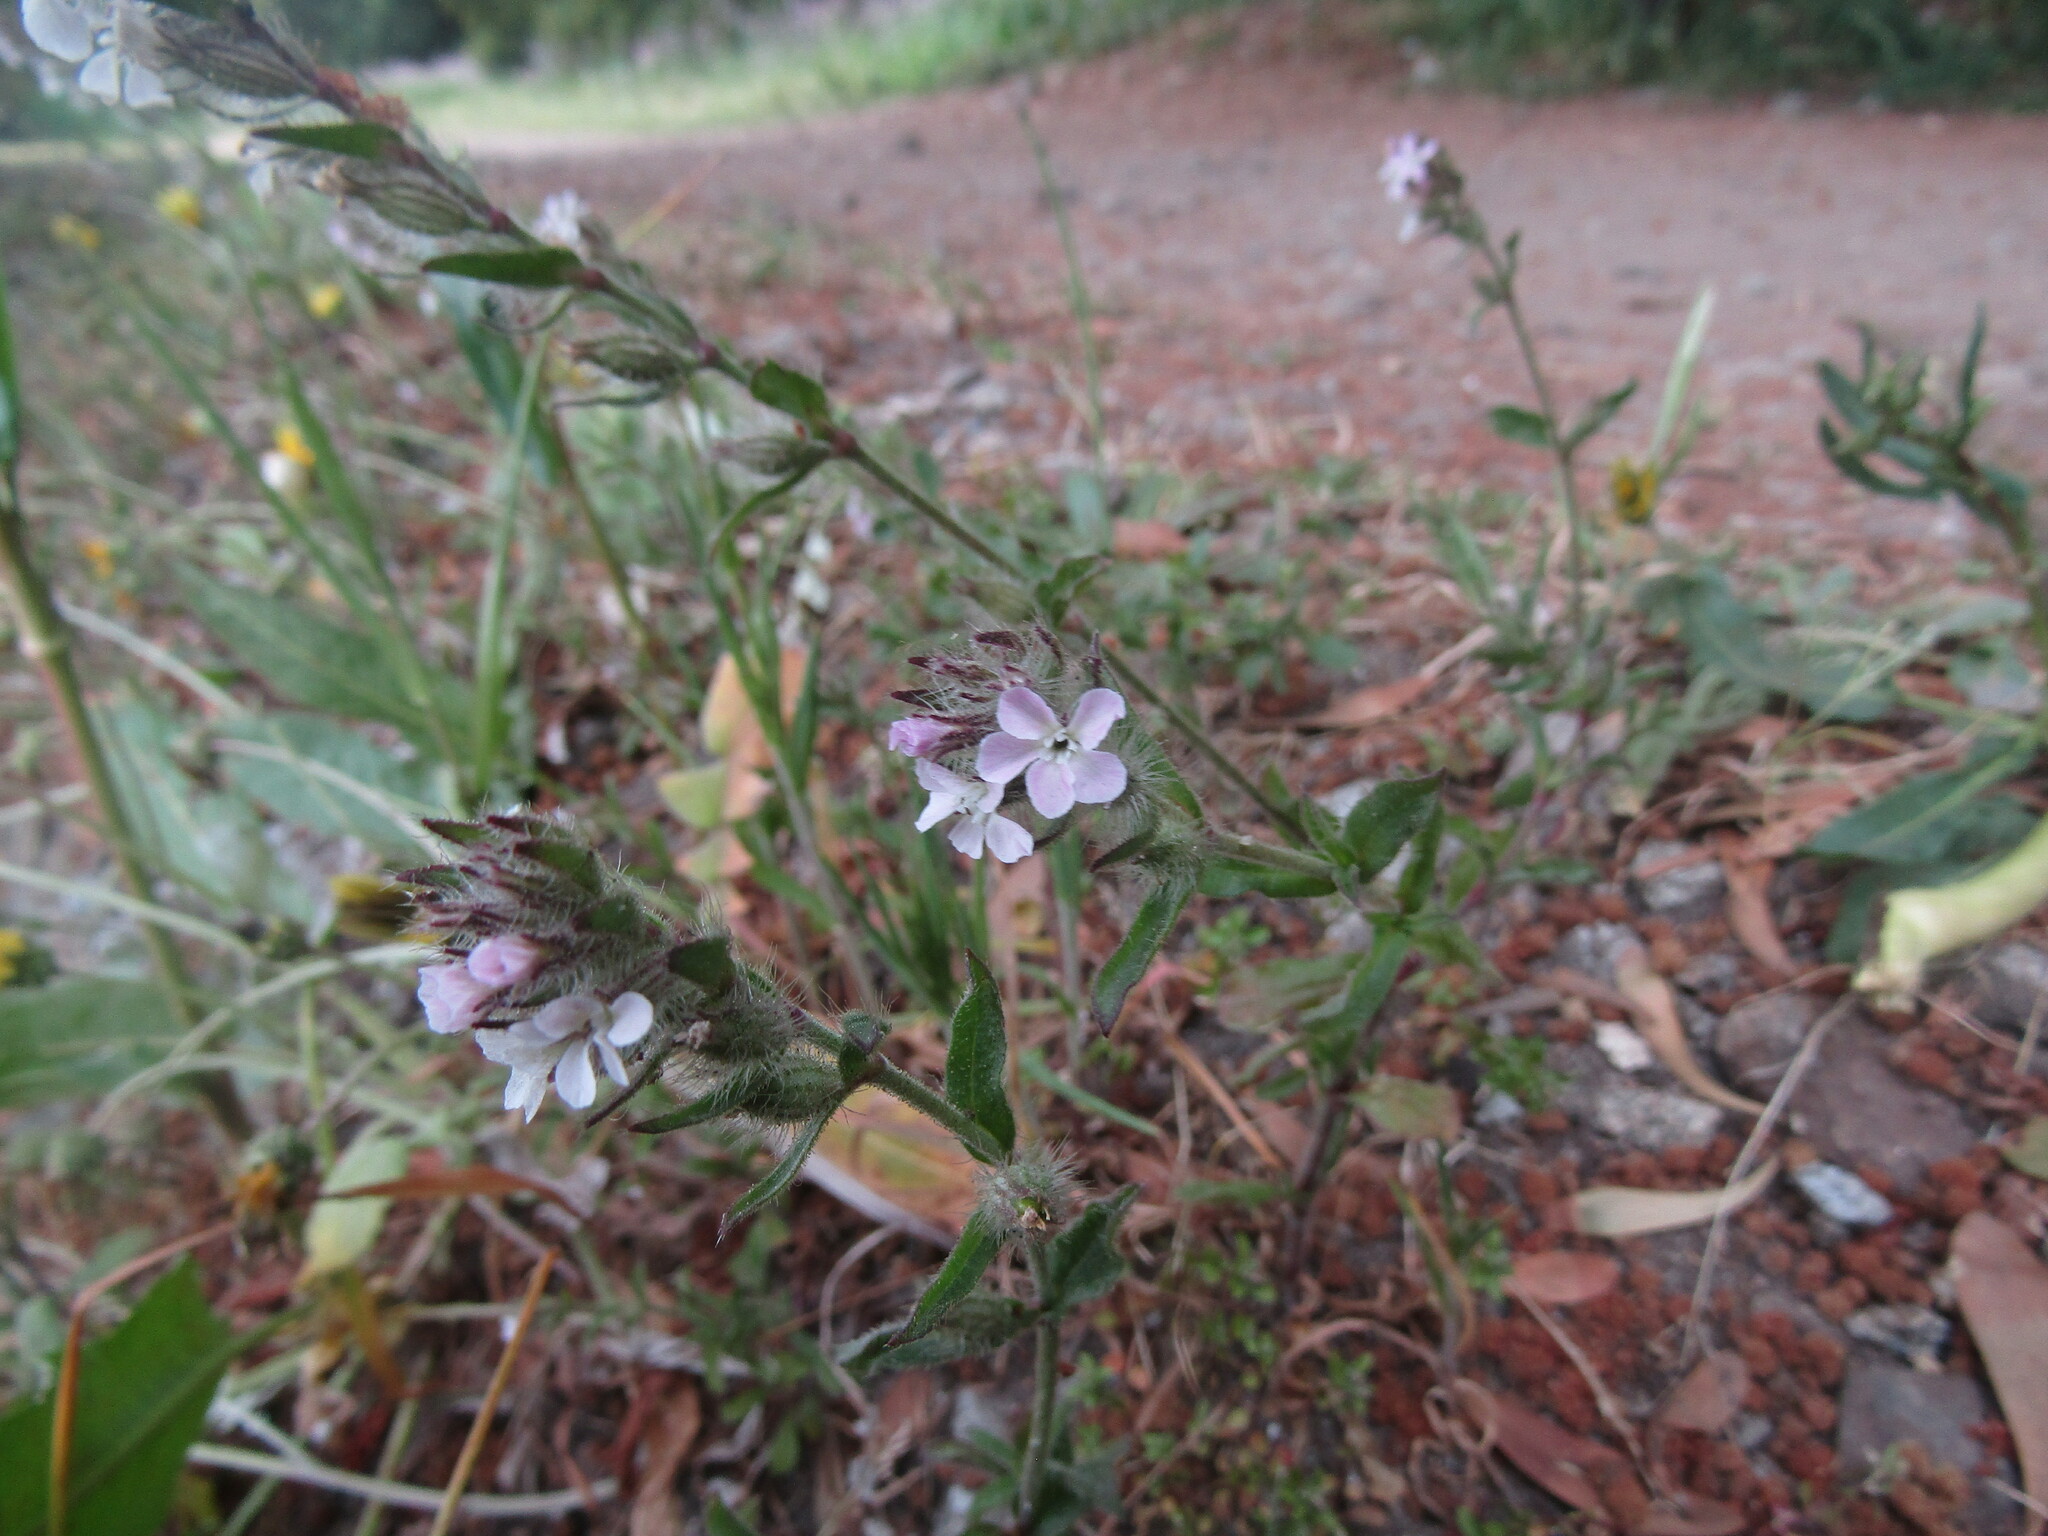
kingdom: Plantae
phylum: Tracheophyta
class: Magnoliopsida
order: Caryophyllales
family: Caryophyllaceae
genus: Silene
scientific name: Silene gallica
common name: Small-flowered catchfly
